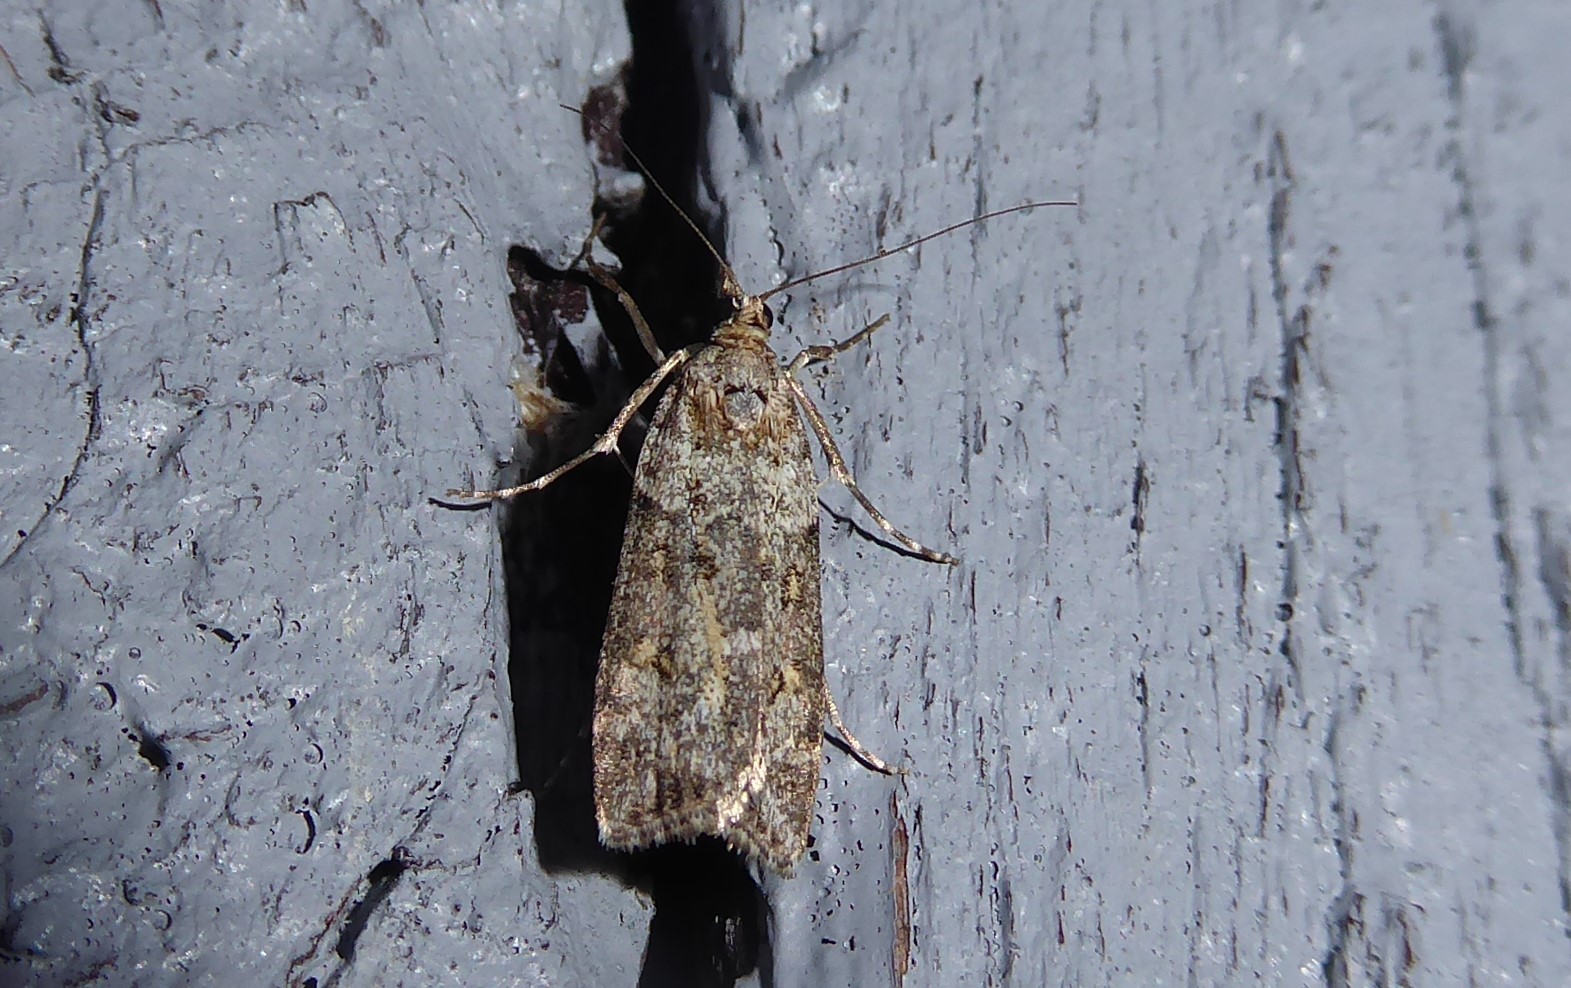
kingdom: Animalia
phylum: Arthropoda
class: Insecta
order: Lepidoptera
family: Crambidae
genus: Eudonia
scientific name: Eudonia diphtheralis
